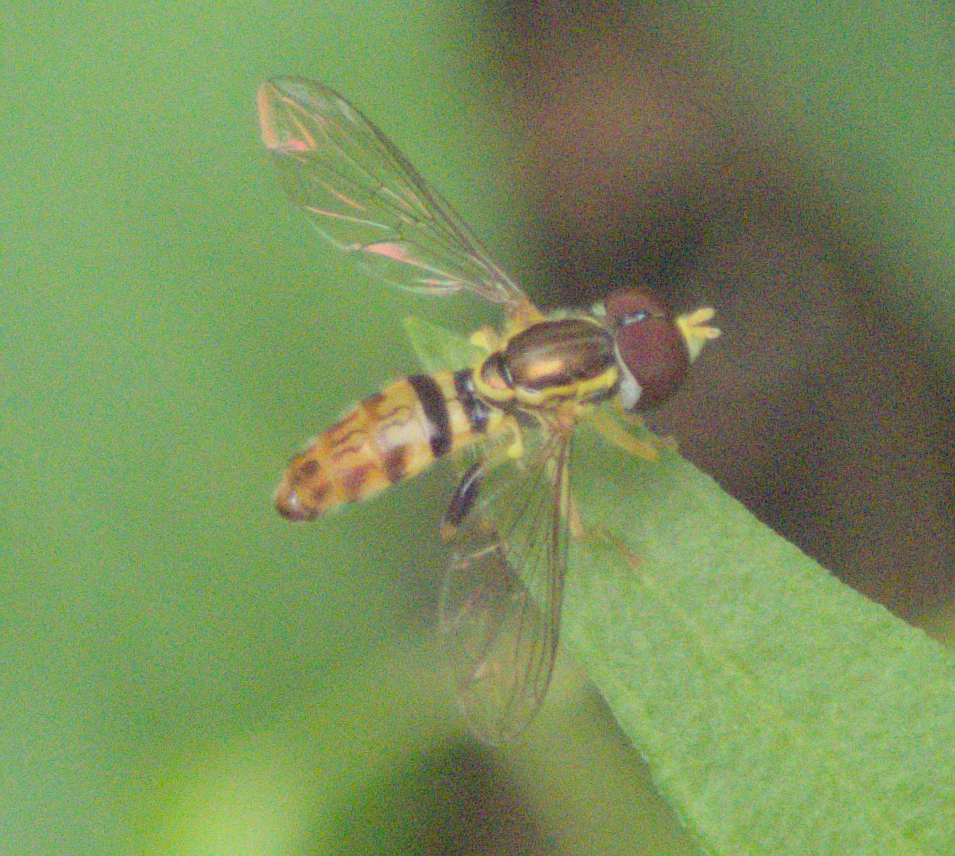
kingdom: Animalia
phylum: Arthropoda
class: Insecta
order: Diptera
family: Syrphidae
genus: Toxomerus
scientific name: Toxomerus geminatus
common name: Eastern calligrapher
